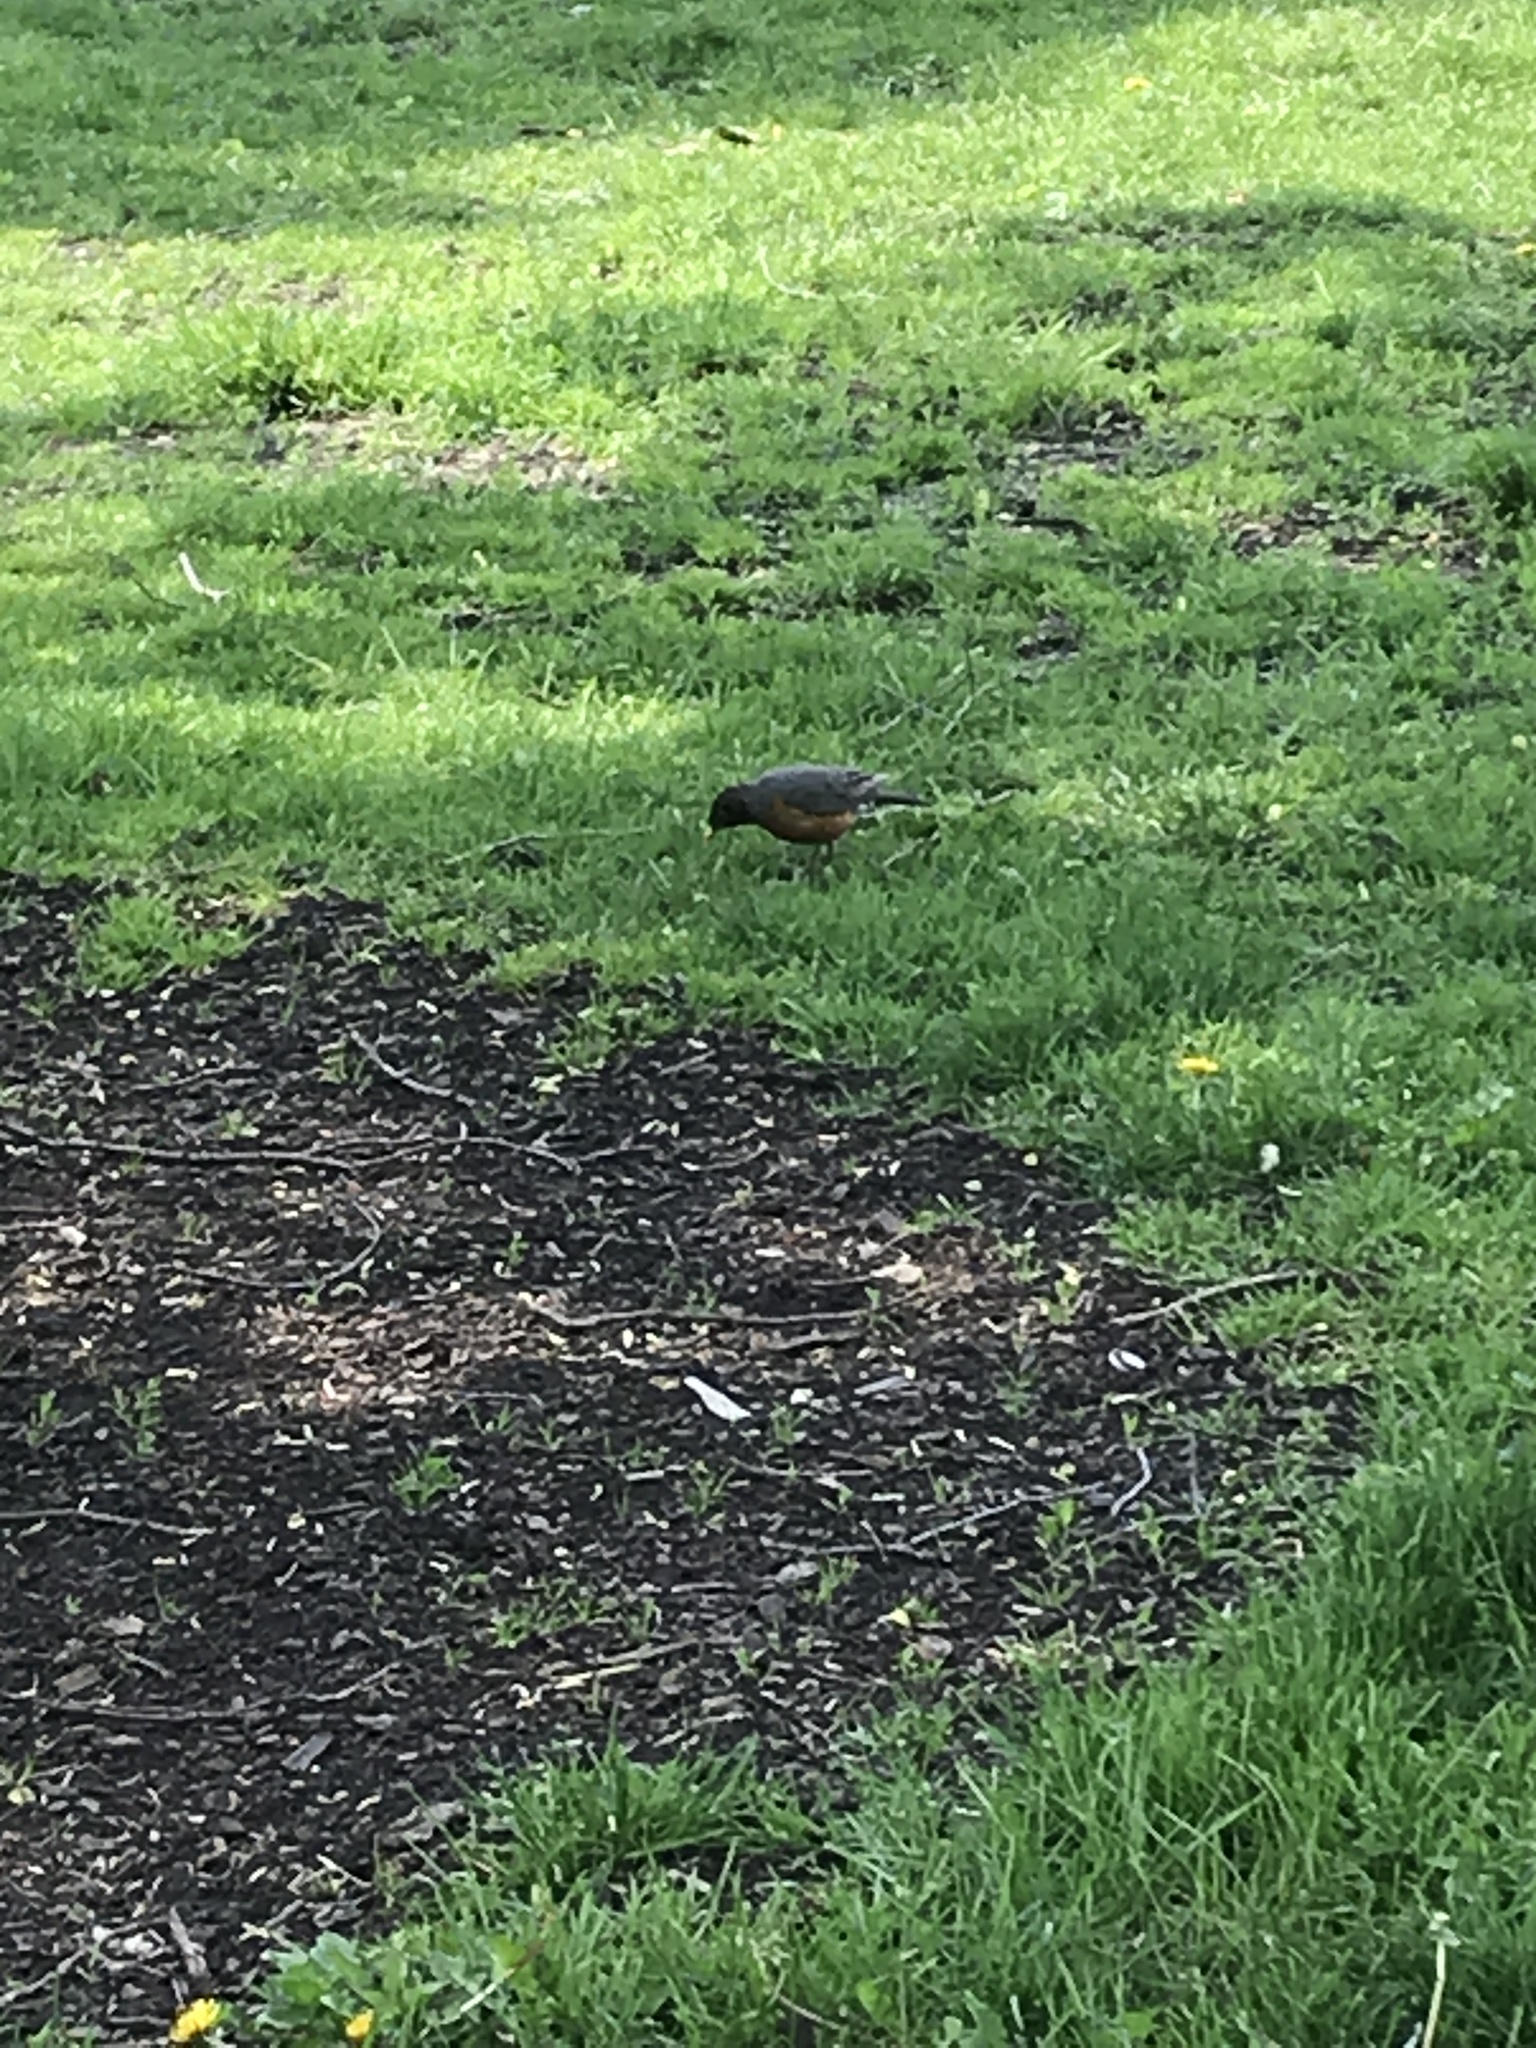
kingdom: Animalia
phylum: Chordata
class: Aves
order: Passeriformes
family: Turdidae
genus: Turdus
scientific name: Turdus migratorius
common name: American robin
